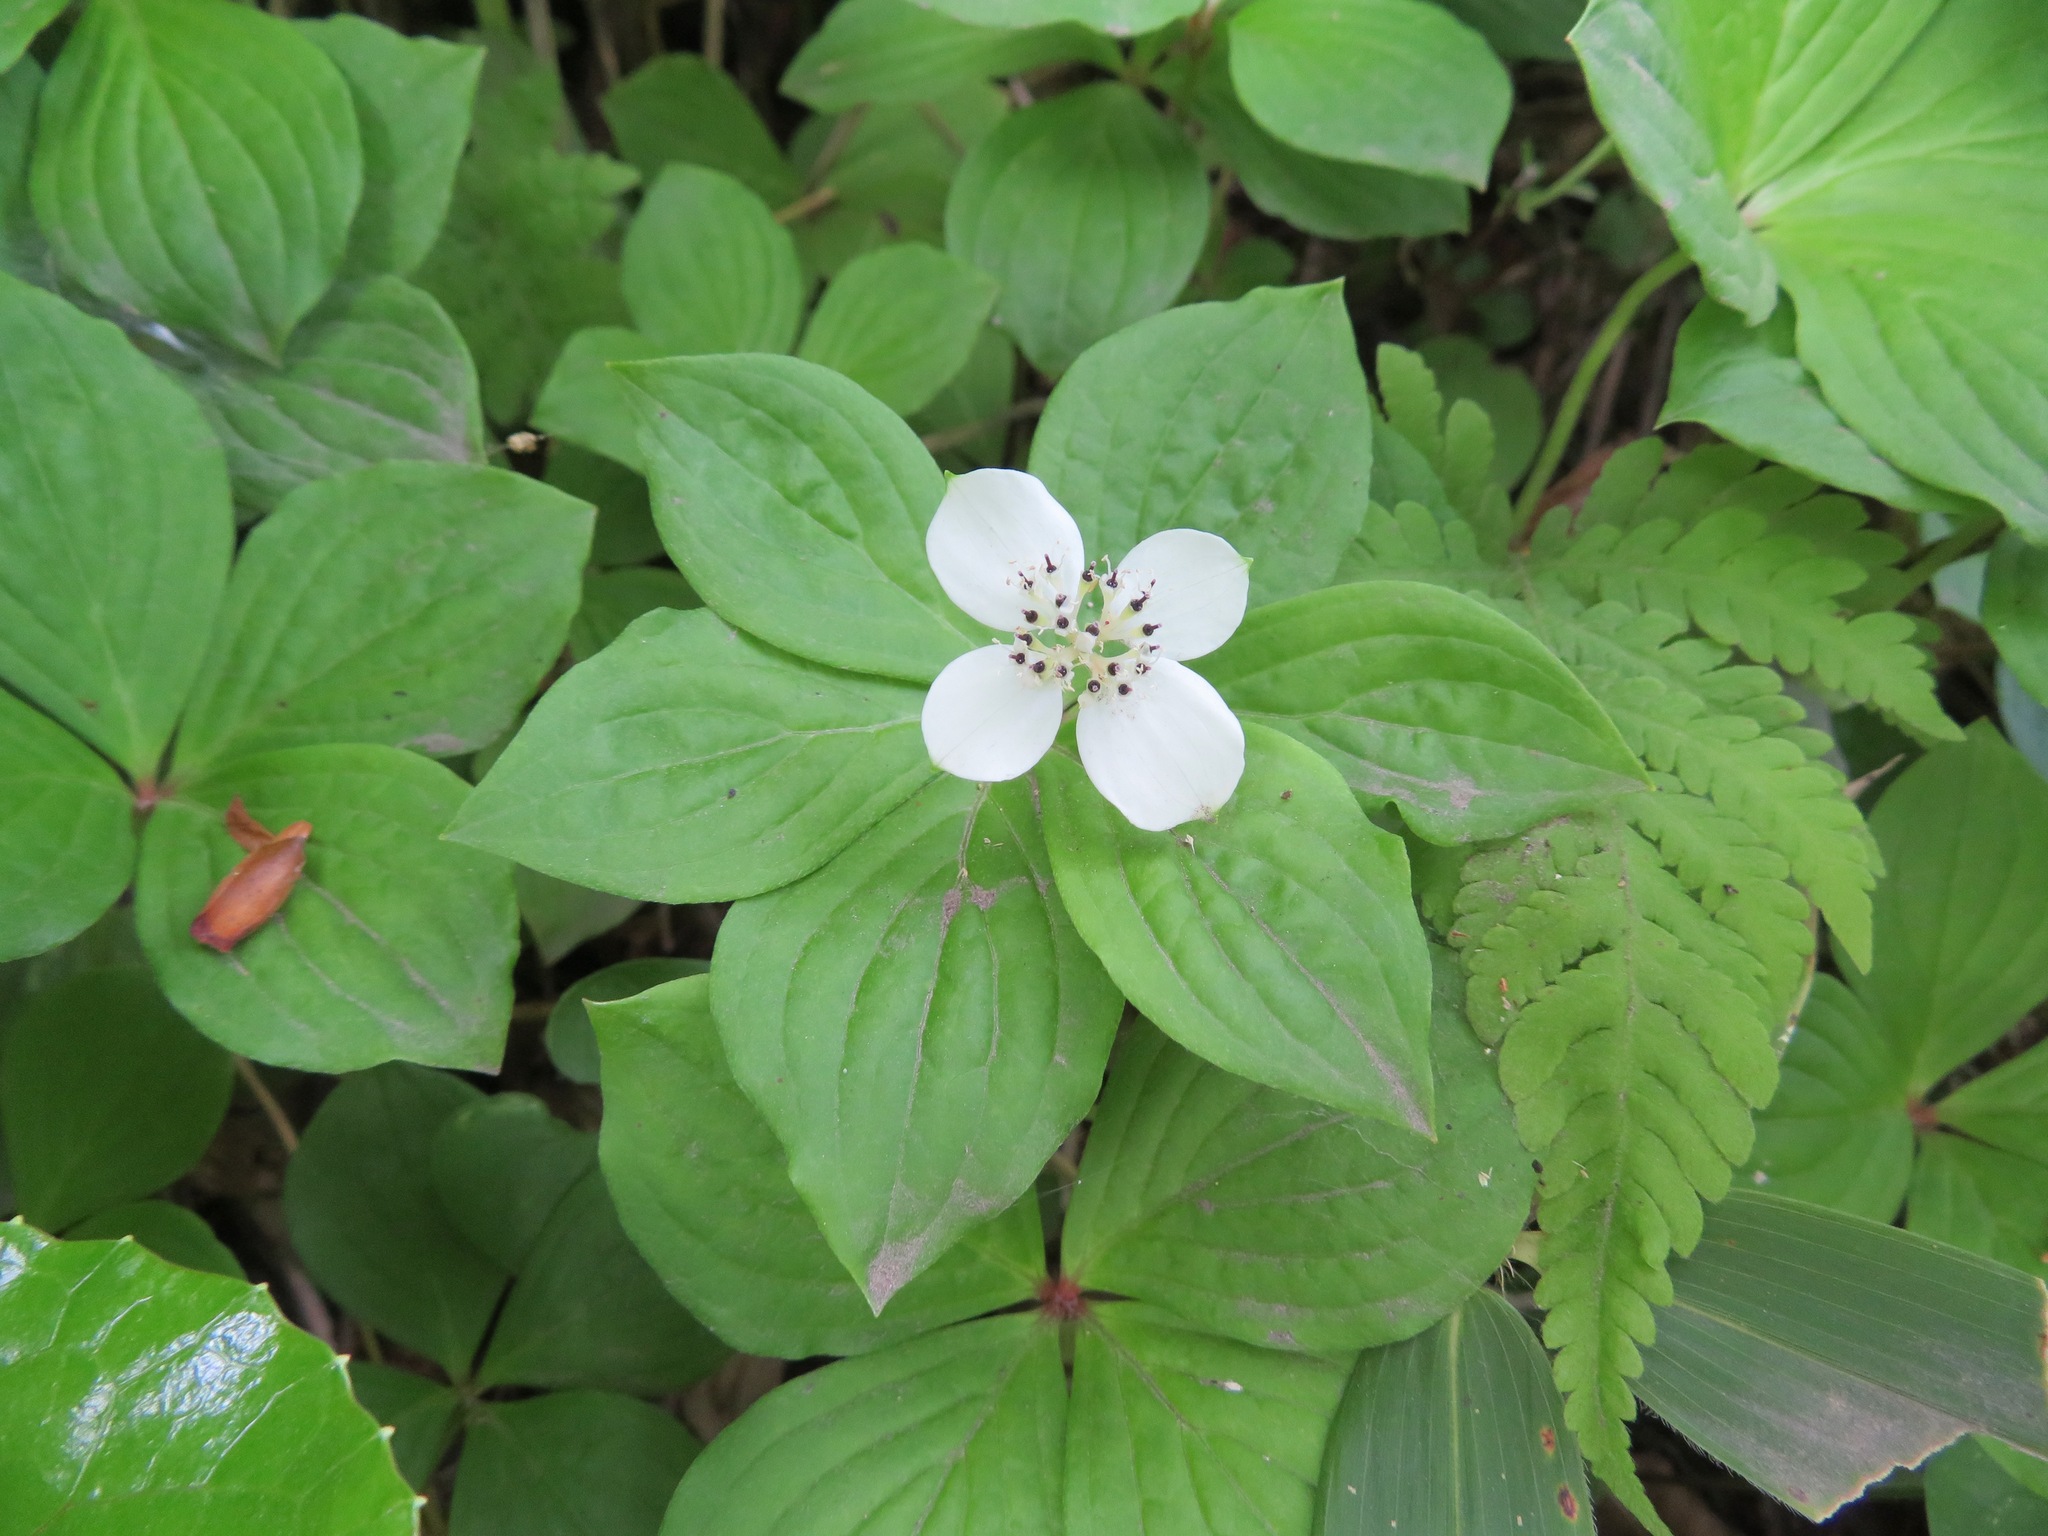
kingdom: Plantae
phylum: Tracheophyta
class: Magnoliopsida
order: Cornales
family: Cornaceae
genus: Cornus
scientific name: Cornus canadensis
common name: Creeping dogwood
